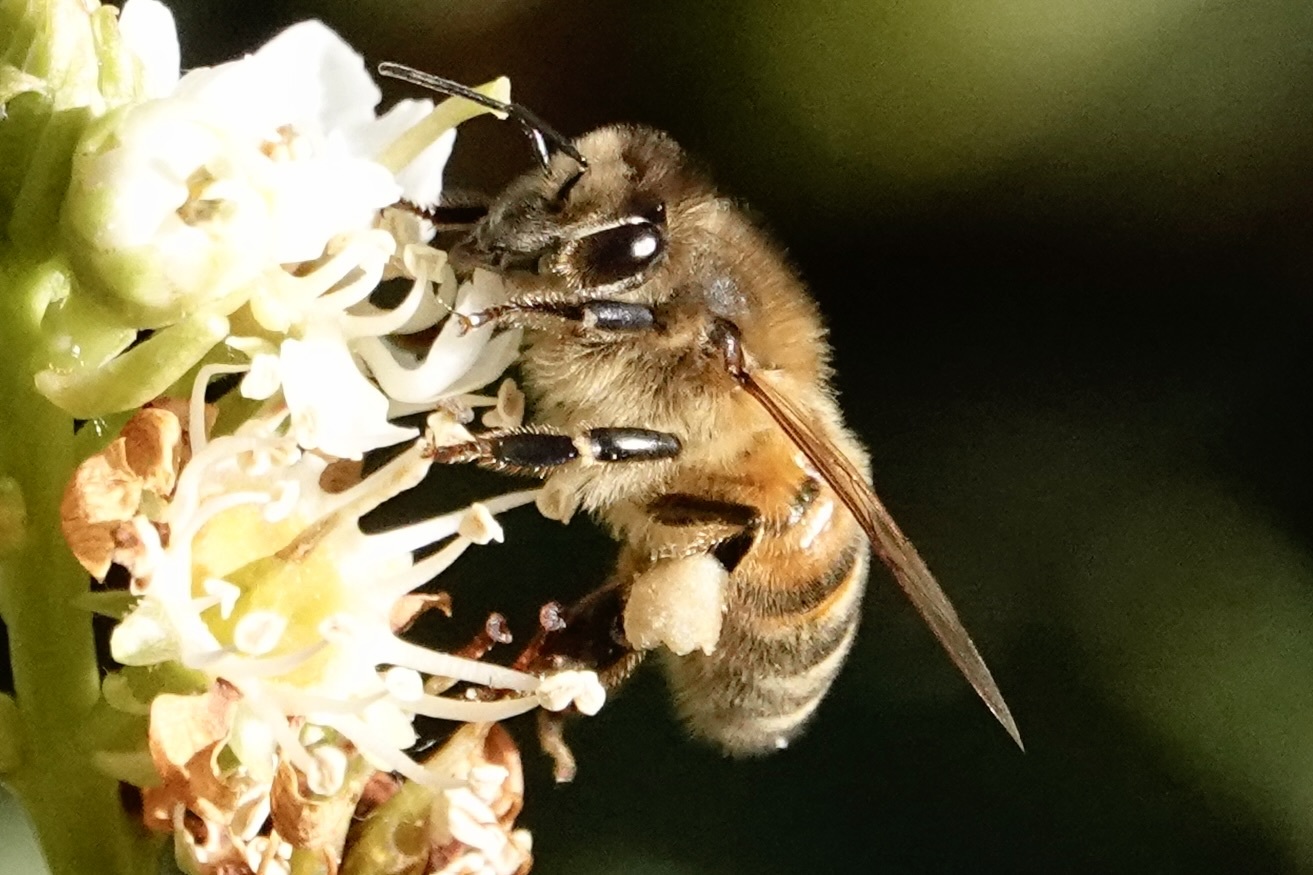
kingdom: Animalia
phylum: Arthropoda
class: Insecta
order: Hymenoptera
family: Apidae
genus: Apis
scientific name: Apis mellifera
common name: Honey bee
